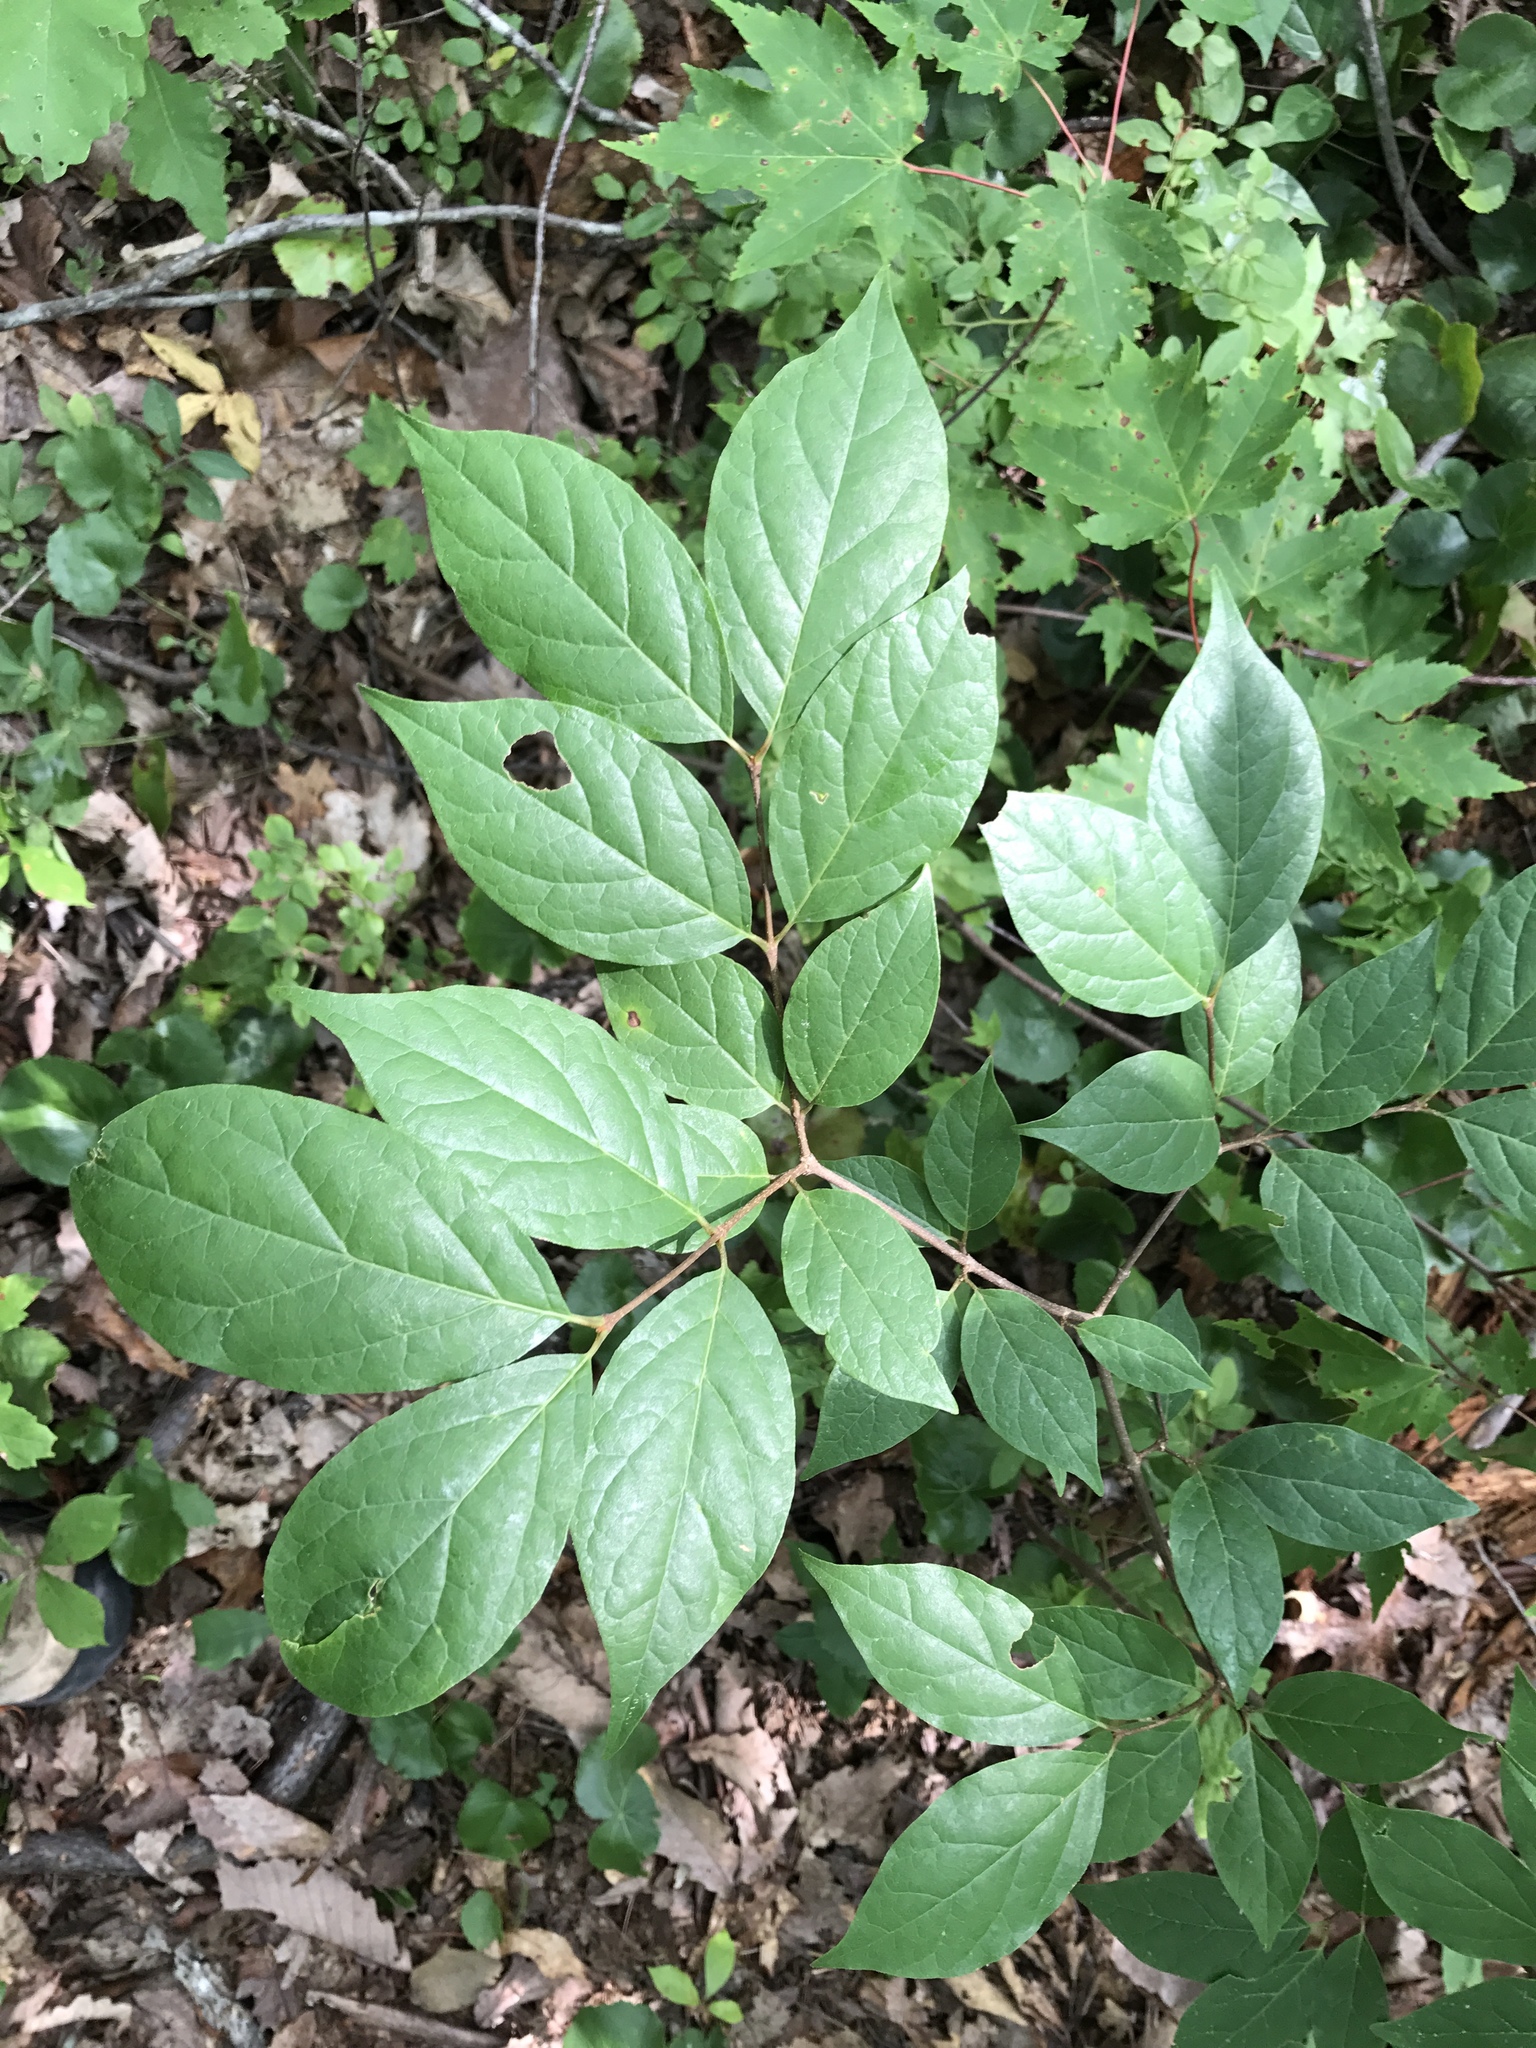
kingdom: Plantae
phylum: Tracheophyta
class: Magnoliopsida
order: Laurales
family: Calycanthaceae
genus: Calycanthus
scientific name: Calycanthus floridus
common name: Carolina-allspice
